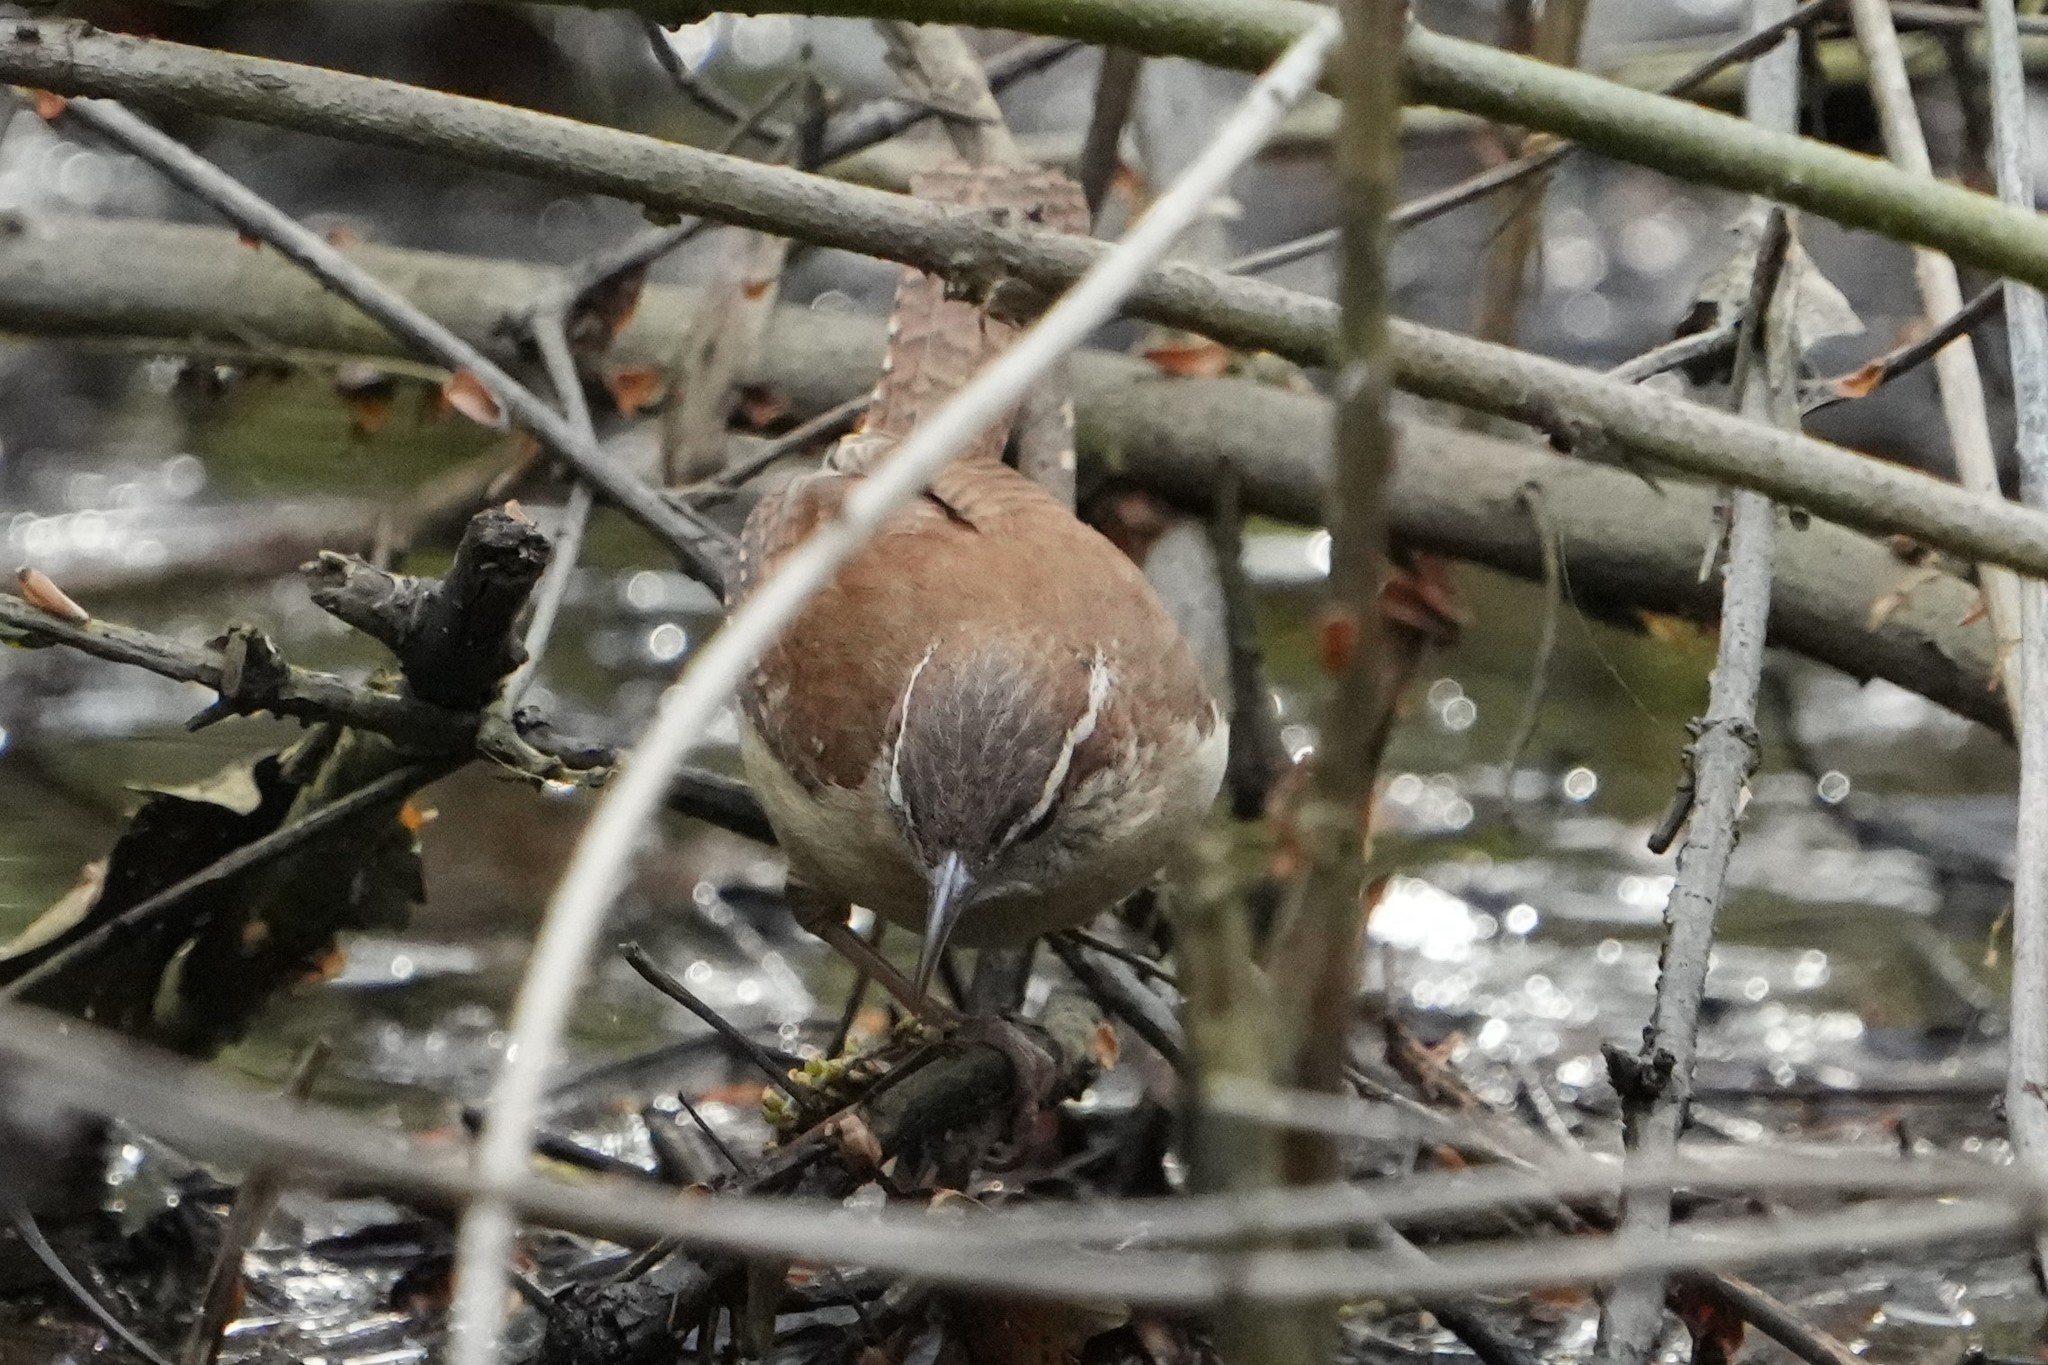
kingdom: Animalia
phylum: Chordata
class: Aves
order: Passeriformes
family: Troglodytidae
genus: Thryothorus
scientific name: Thryothorus ludovicianus
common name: Carolina wren
